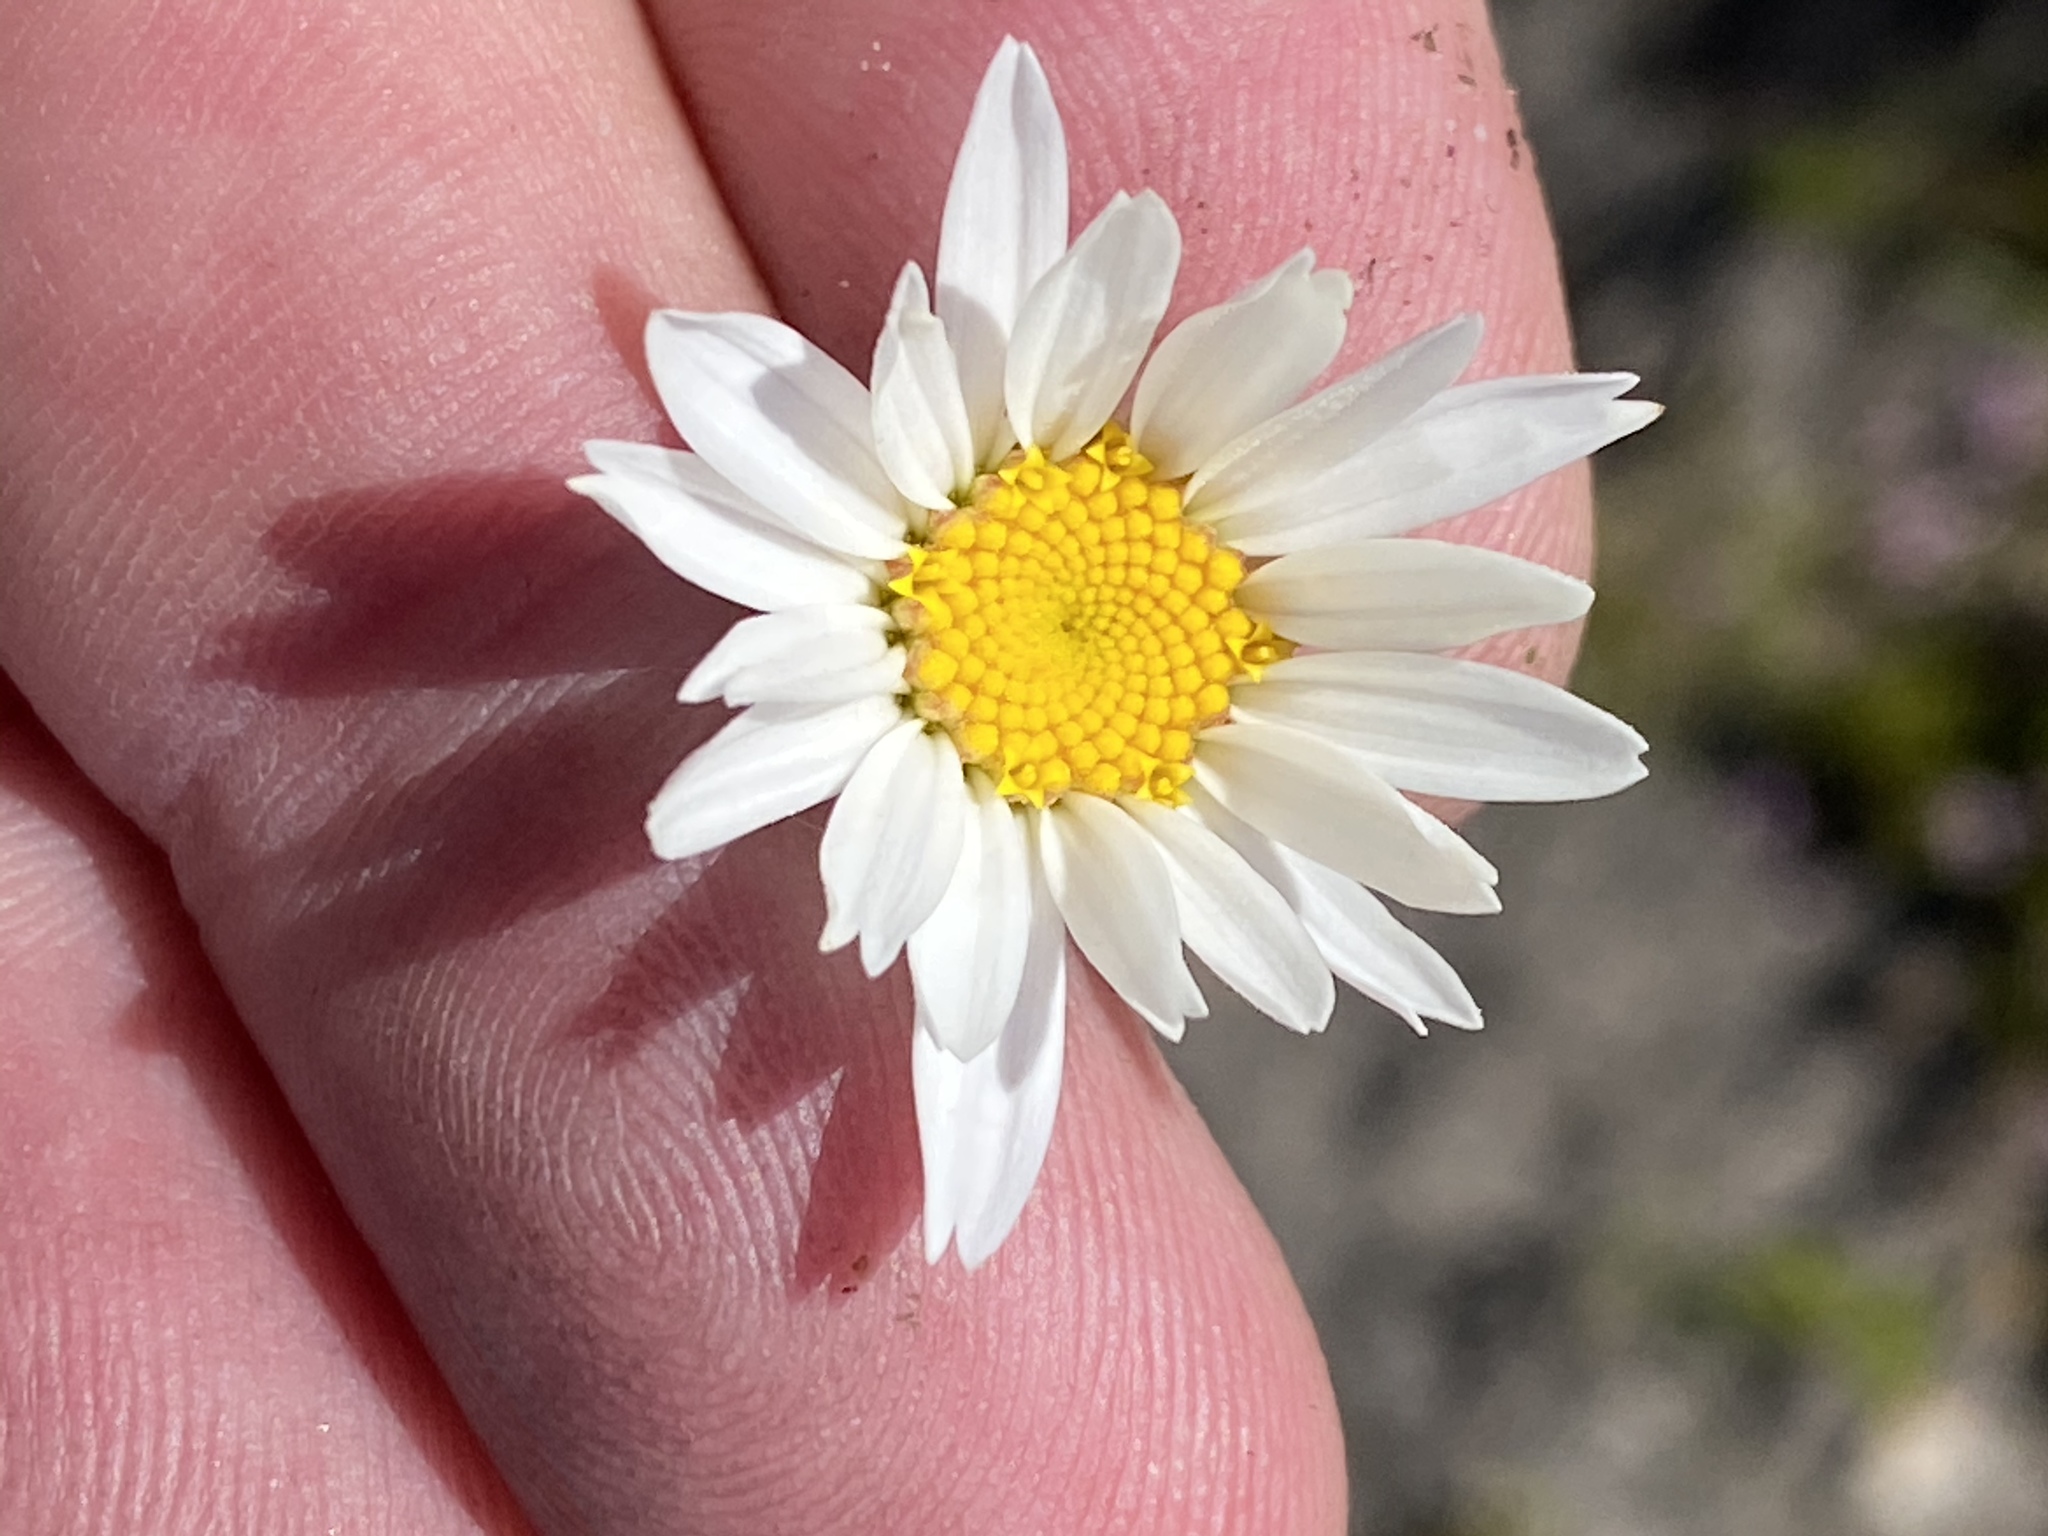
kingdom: Plantae
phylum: Tracheophyta
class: Magnoliopsida
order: Asterales
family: Asteraceae
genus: Osmitopsis
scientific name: Osmitopsis glabra
